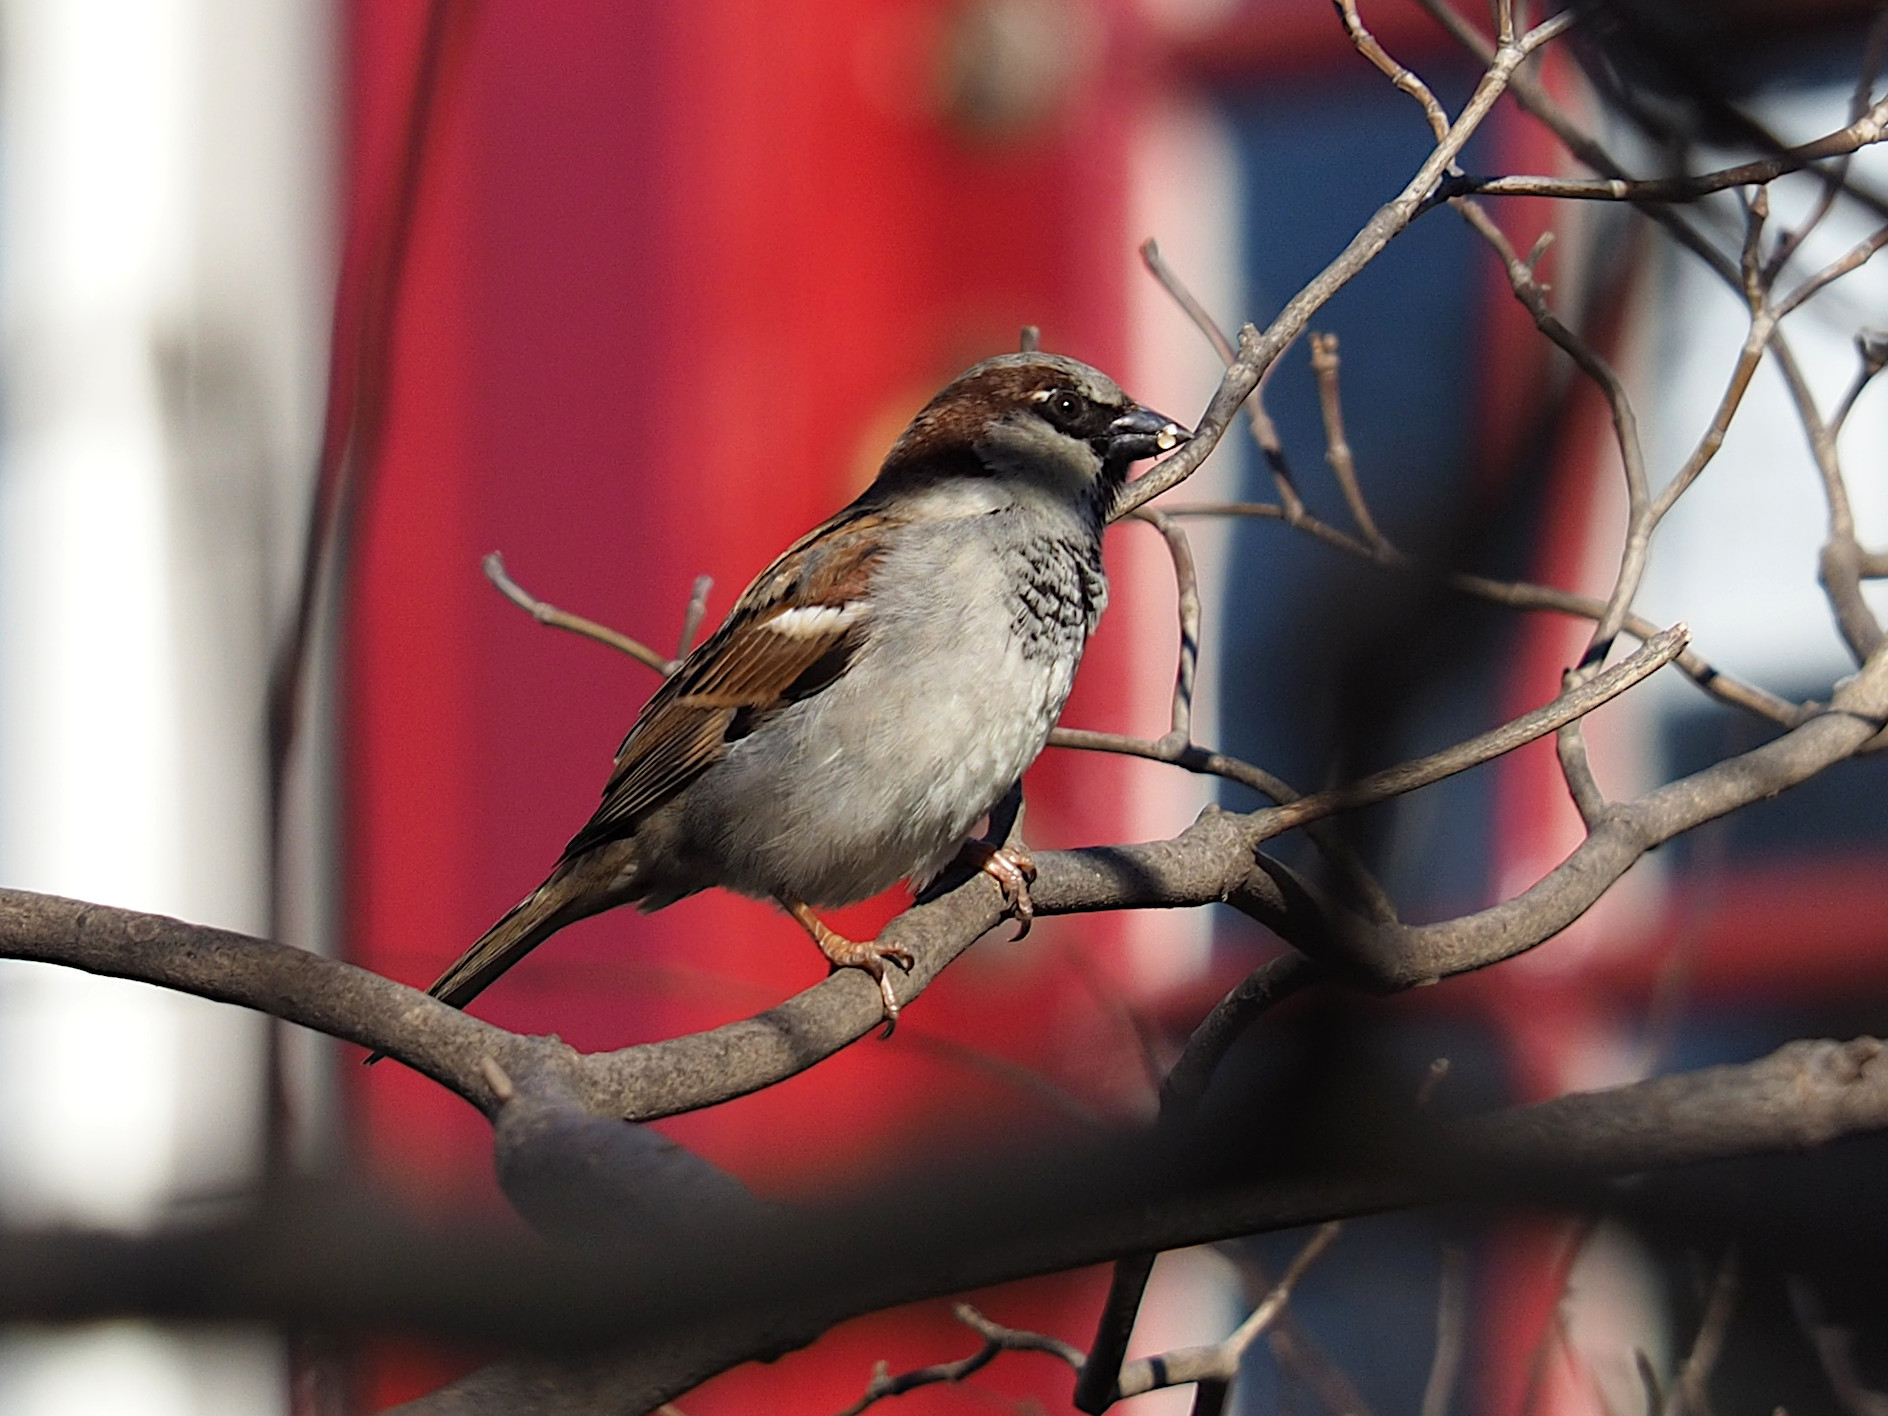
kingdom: Animalia
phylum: Chordata
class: Aves
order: Passeriformes
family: Passeridae
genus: Passer
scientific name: Passer domesticus
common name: House sparrow
